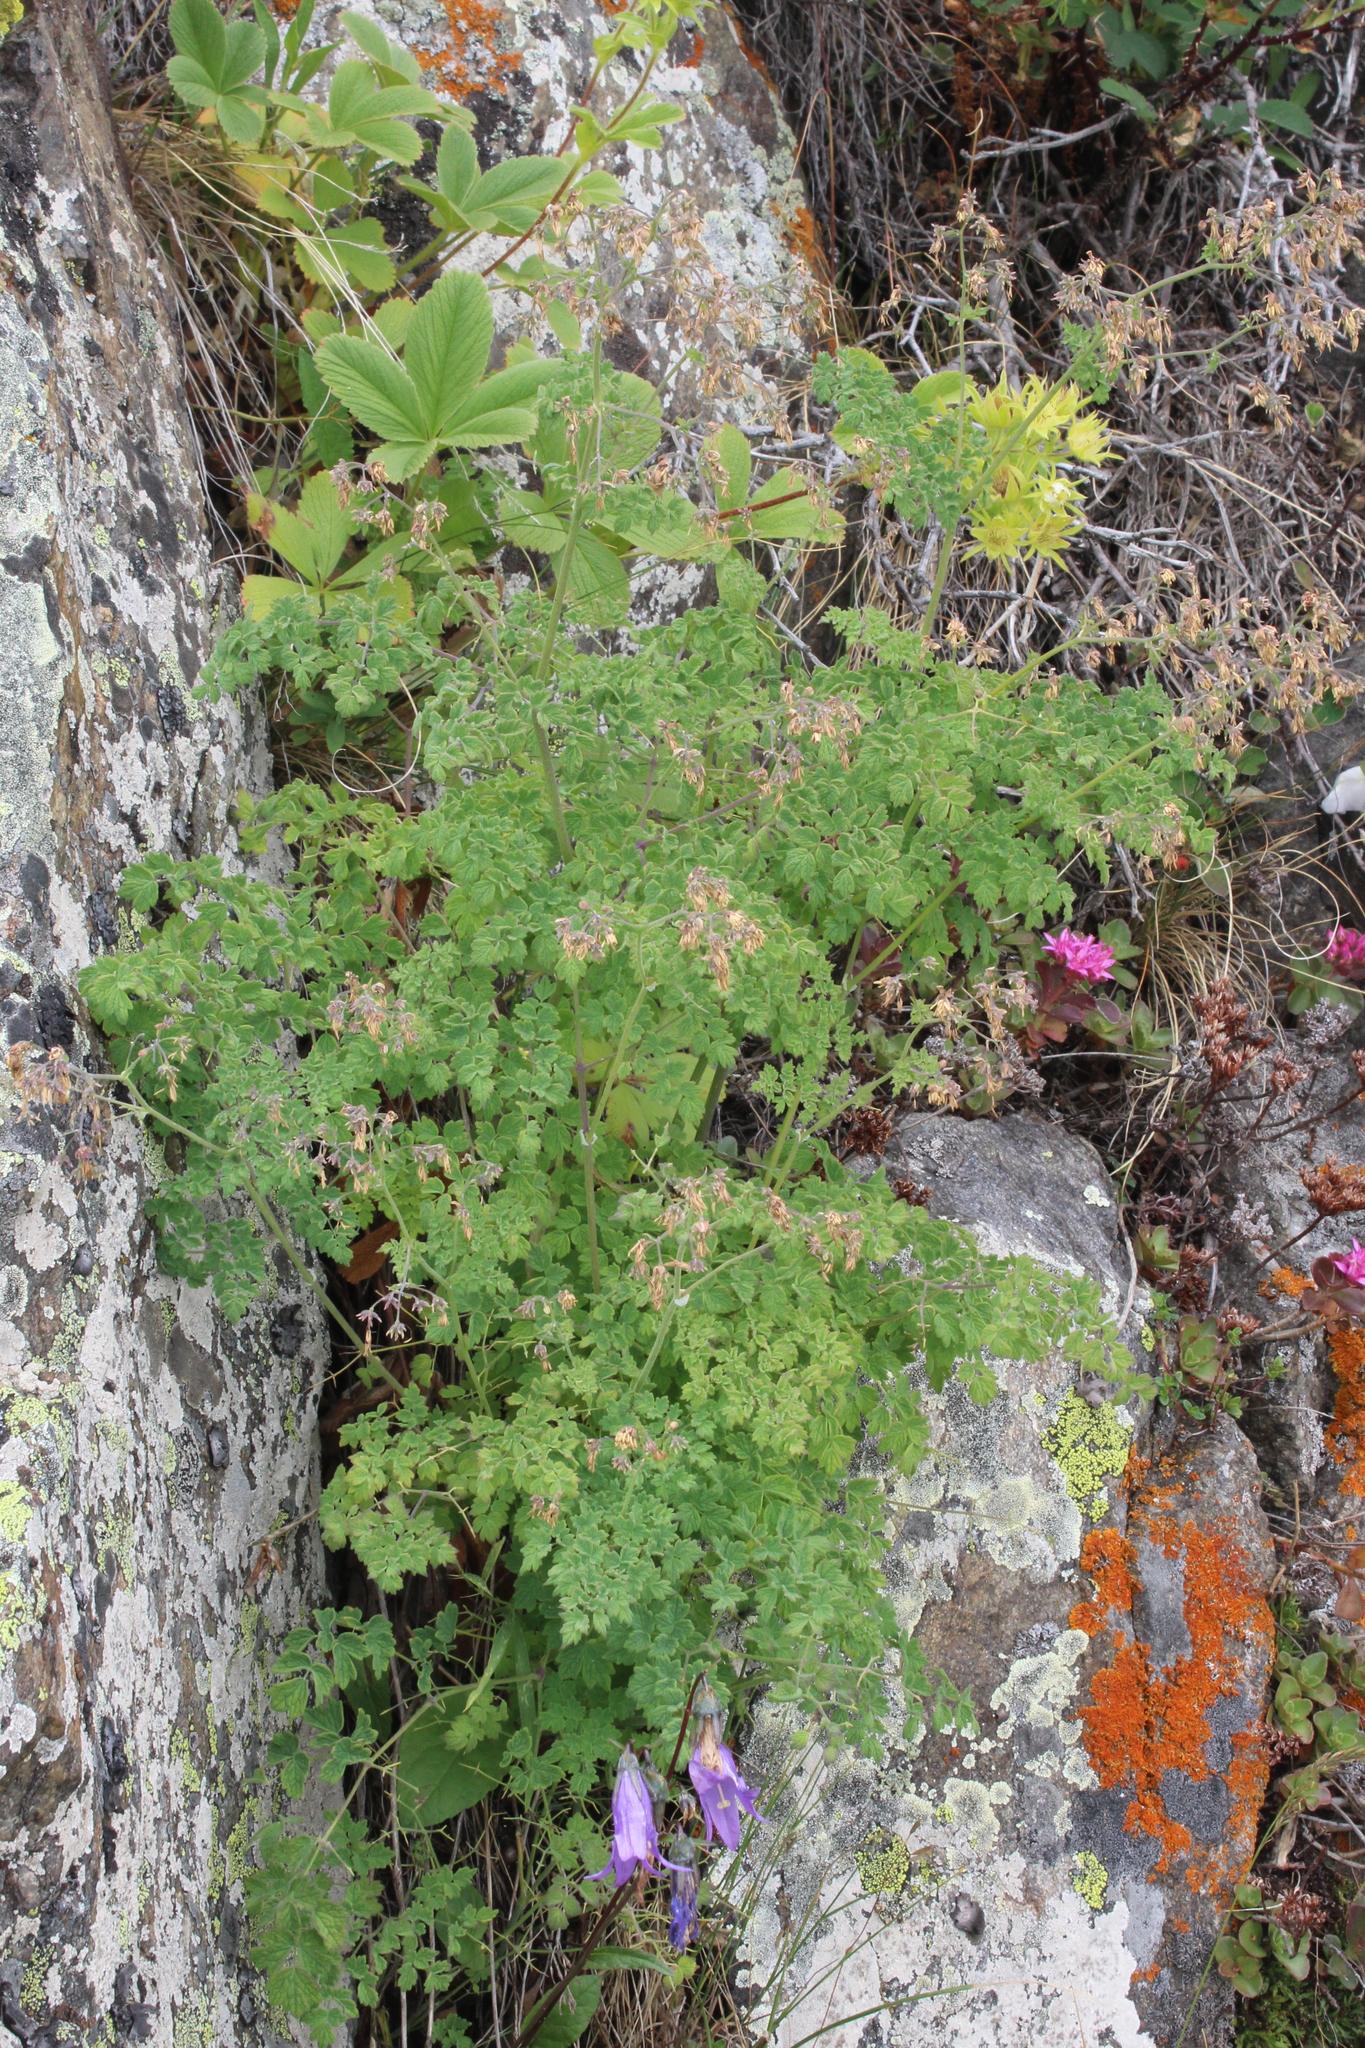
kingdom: Plantae
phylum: Tracheophyta
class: Magnoliopsida
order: Ranunculales
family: Ranunculaceae
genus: Thalictrum
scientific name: Thalictrum foetidum
